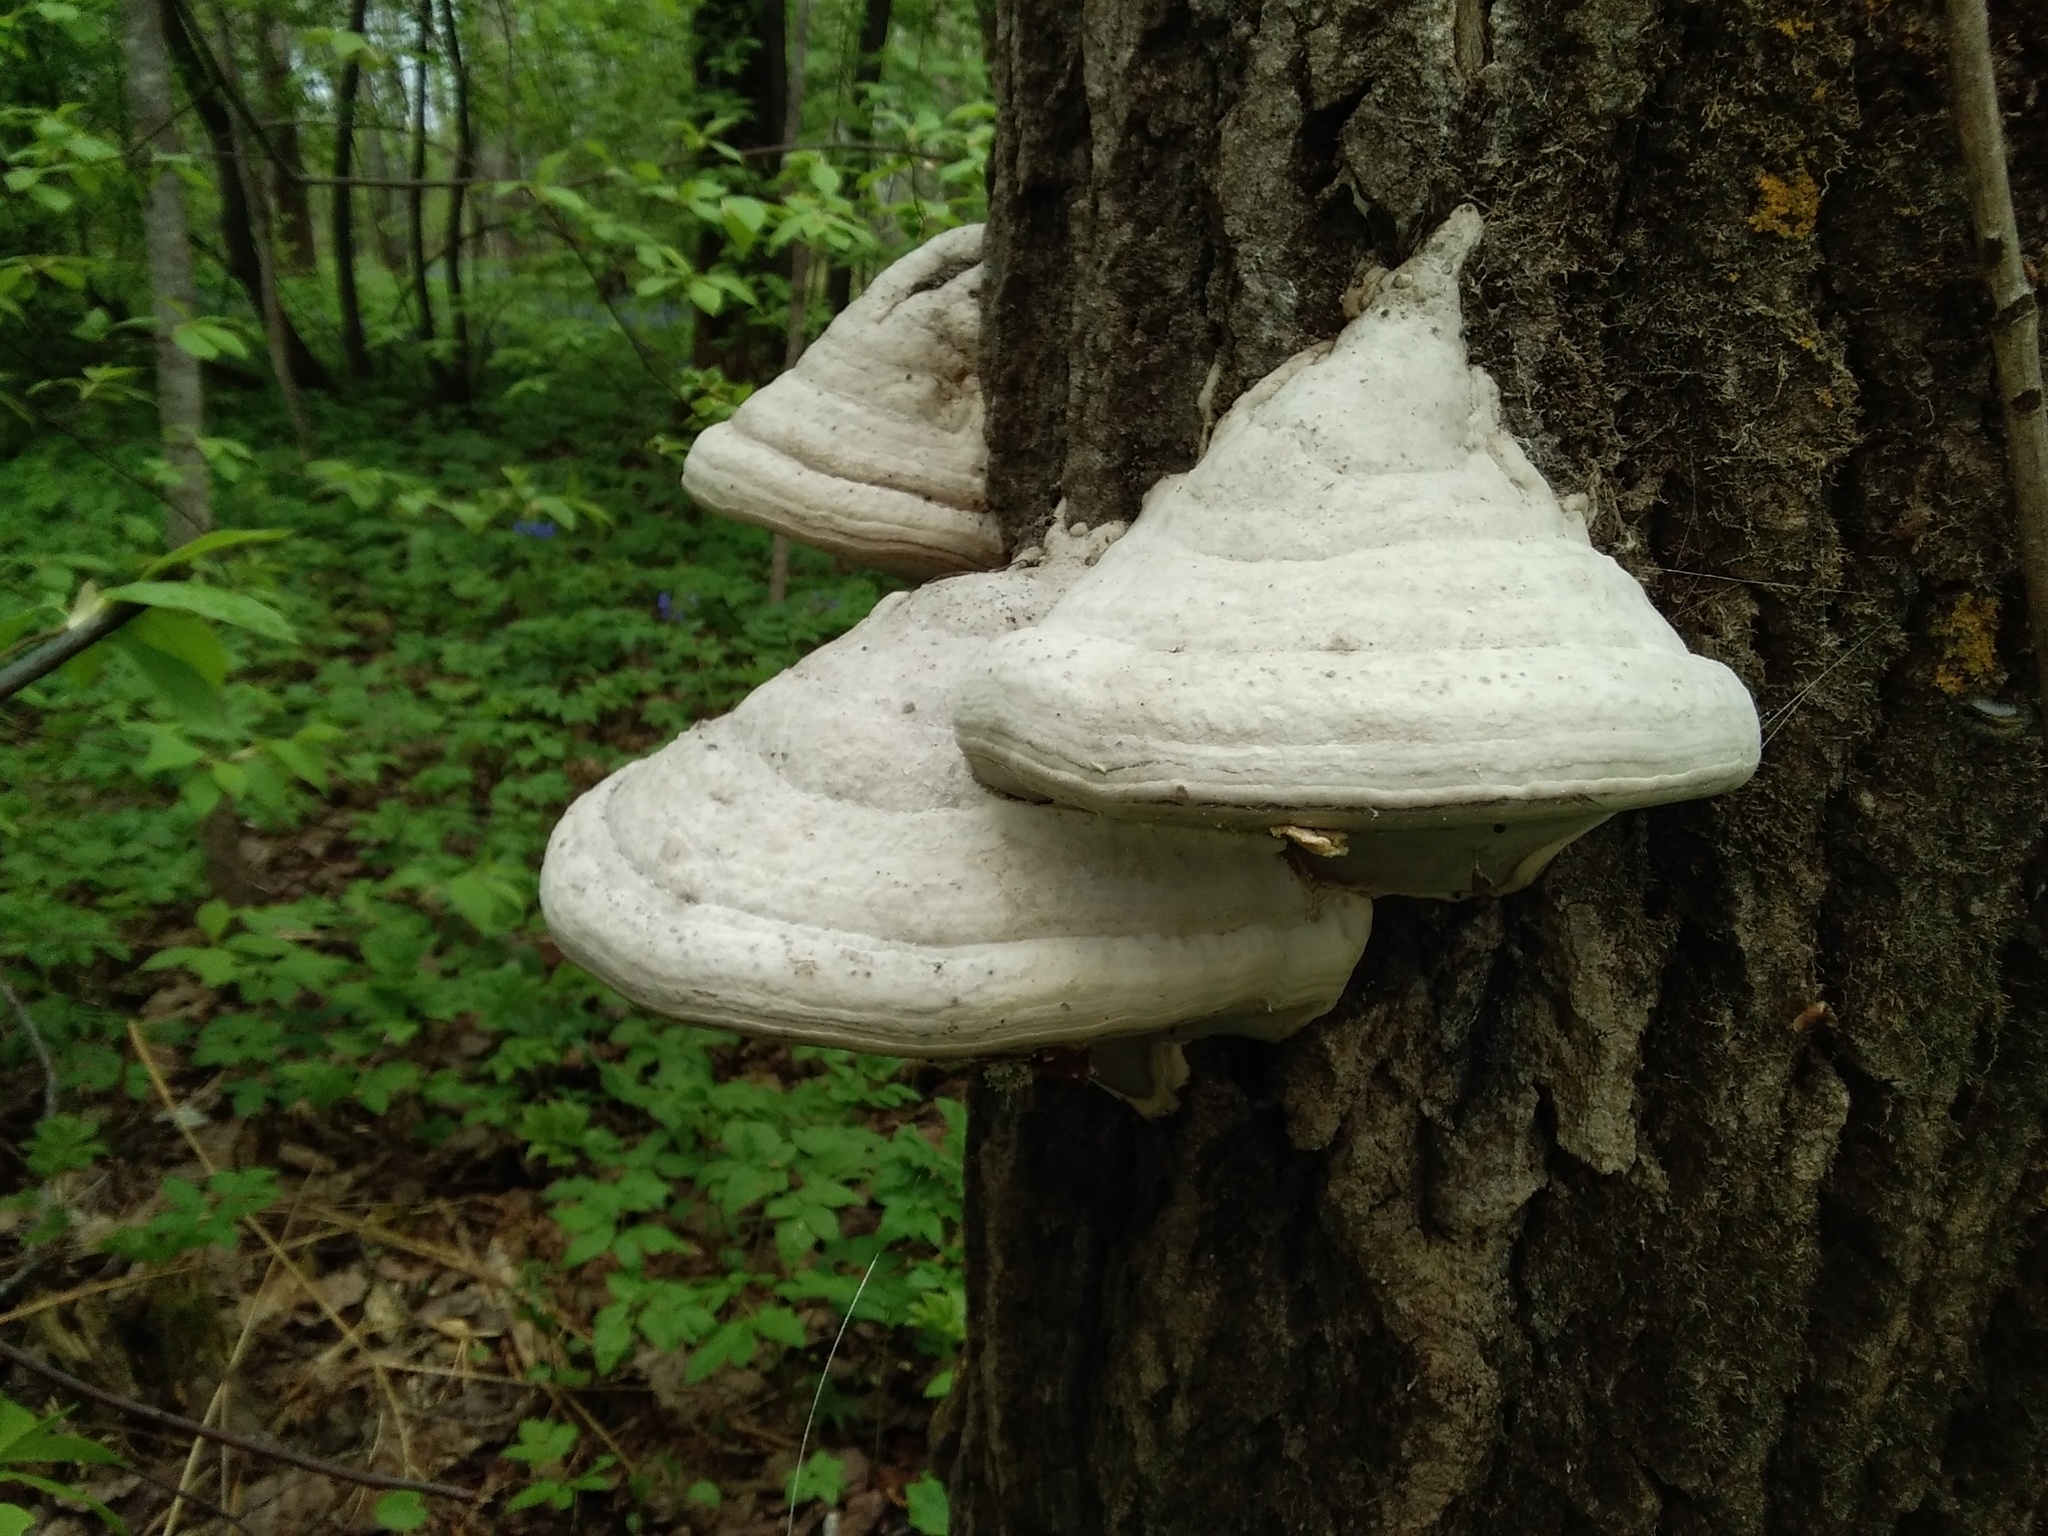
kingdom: Fungi
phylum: Basidiomycota
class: Agaricomycetes
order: Polyporales
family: Polyporaceae
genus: Fomes
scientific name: Fomes fomentarius
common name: Hoof fungus
